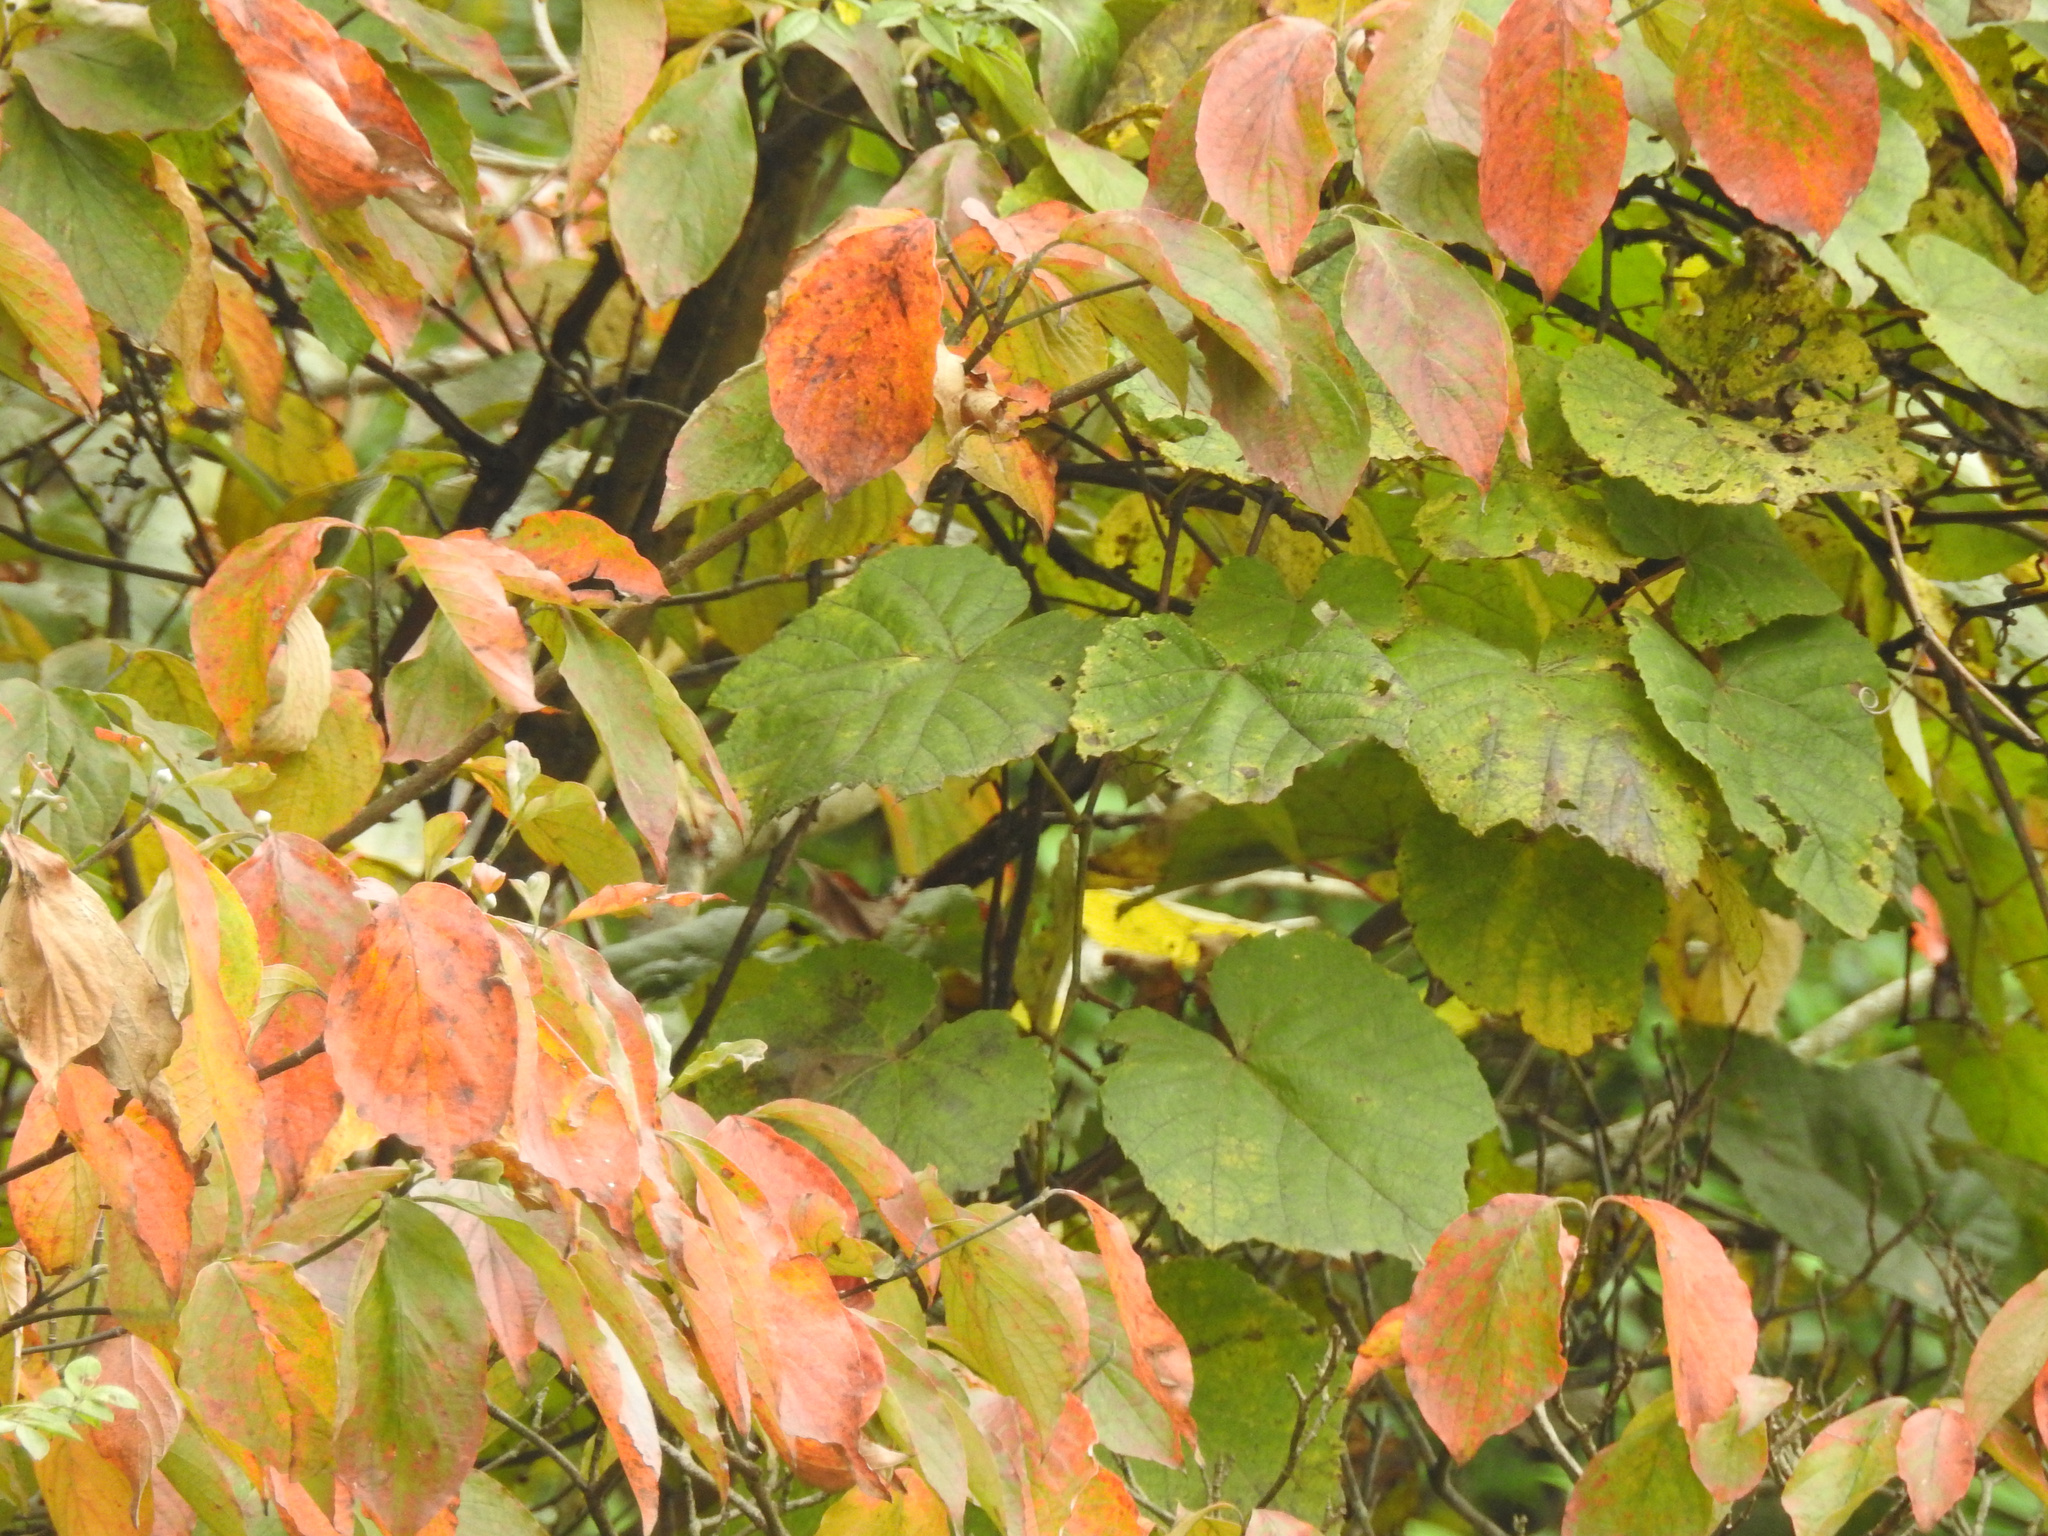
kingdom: Plantae
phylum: Tracheophyta
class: Magnoliopsida
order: Cornales
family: Cornaceae
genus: Cornus
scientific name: Cornus florida
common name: Flowering dogwood
